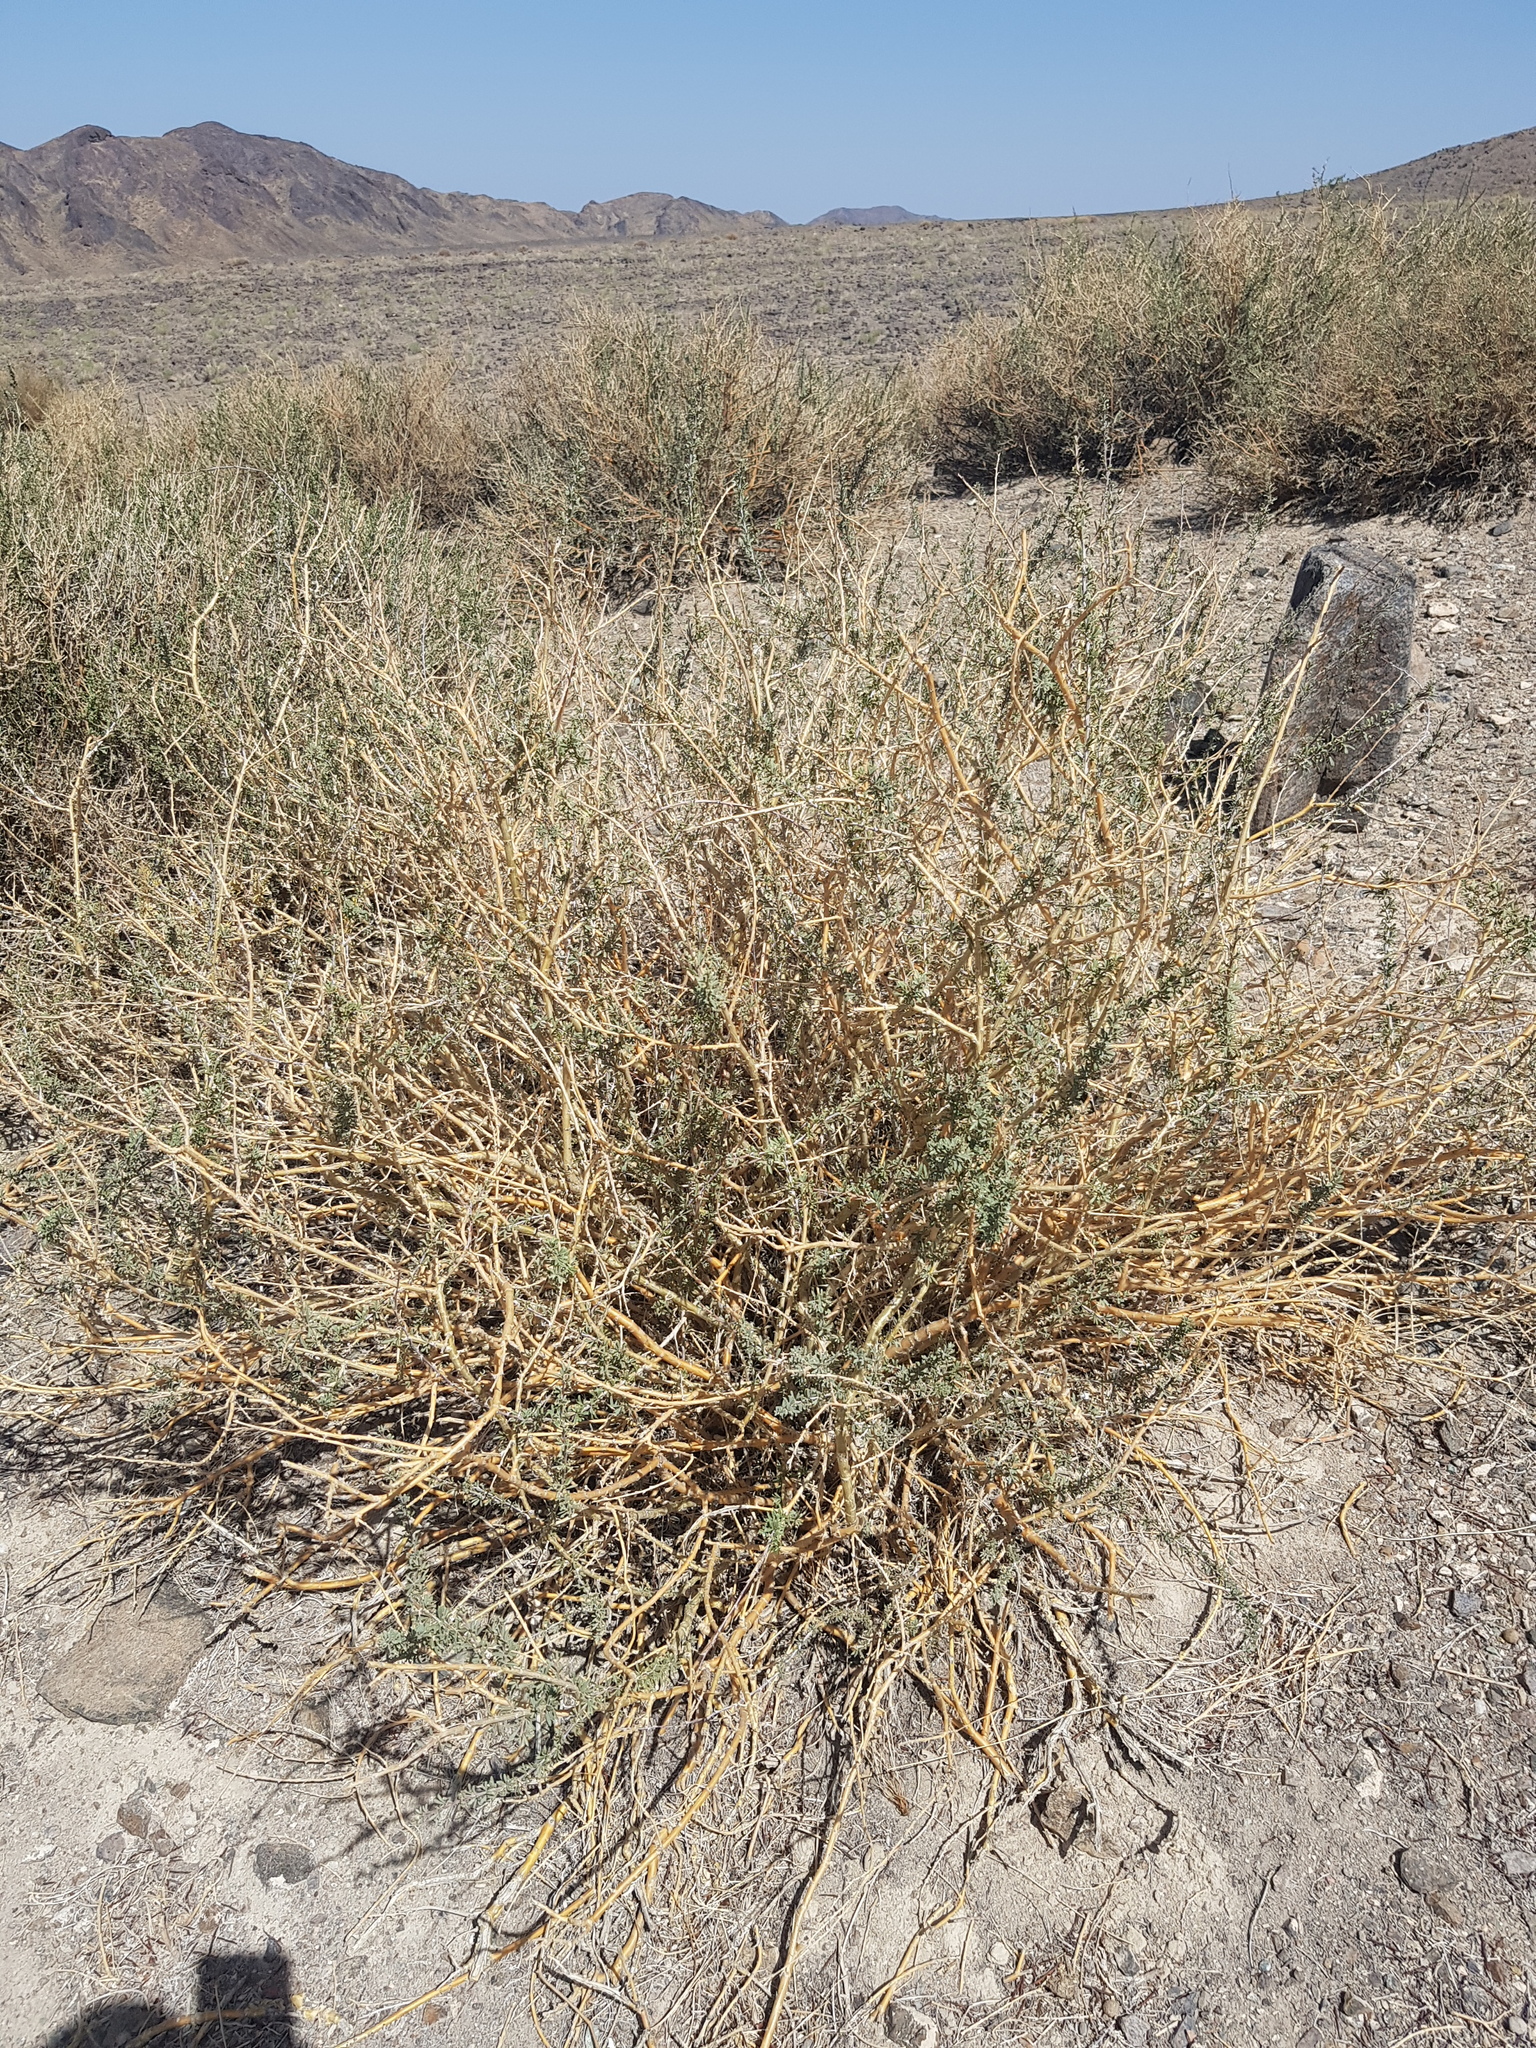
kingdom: Plantae
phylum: Tracheophyta
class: Magnoliopsida
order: Fabales
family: Fabaceae
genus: Caragana
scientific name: Caragana leucophloea
